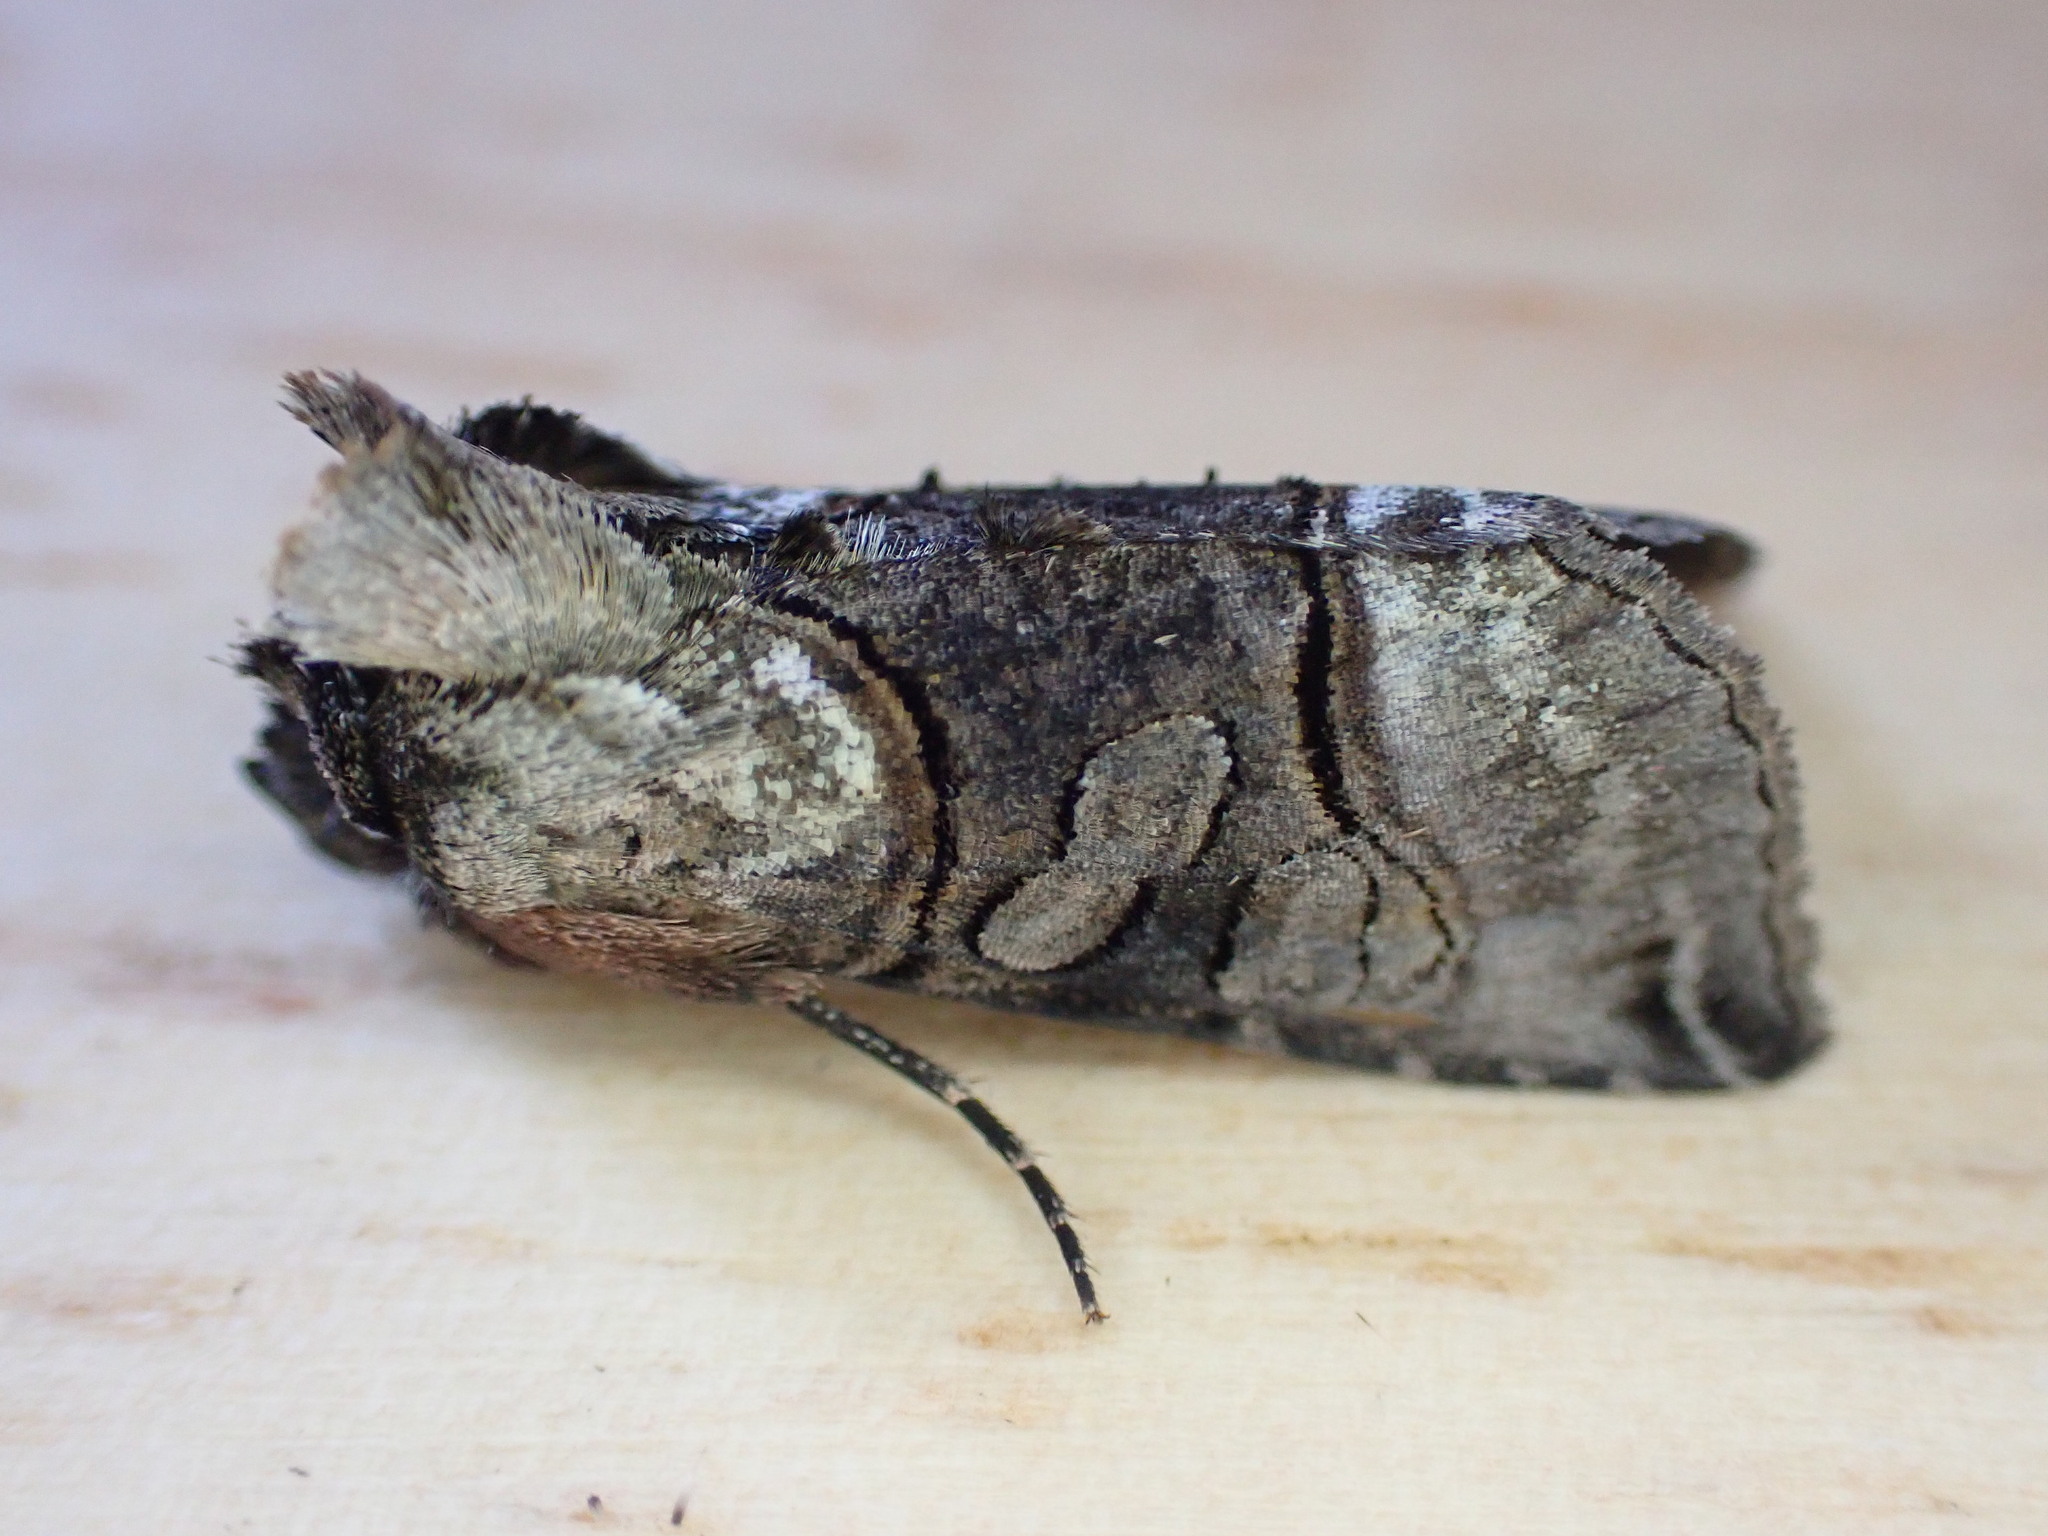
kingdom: Animalia
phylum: Arthropoda
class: Insecta
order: Lepidoptera
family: Noctuidae
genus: Abrostola
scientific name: Abrostola tripartita
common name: Spectacle
